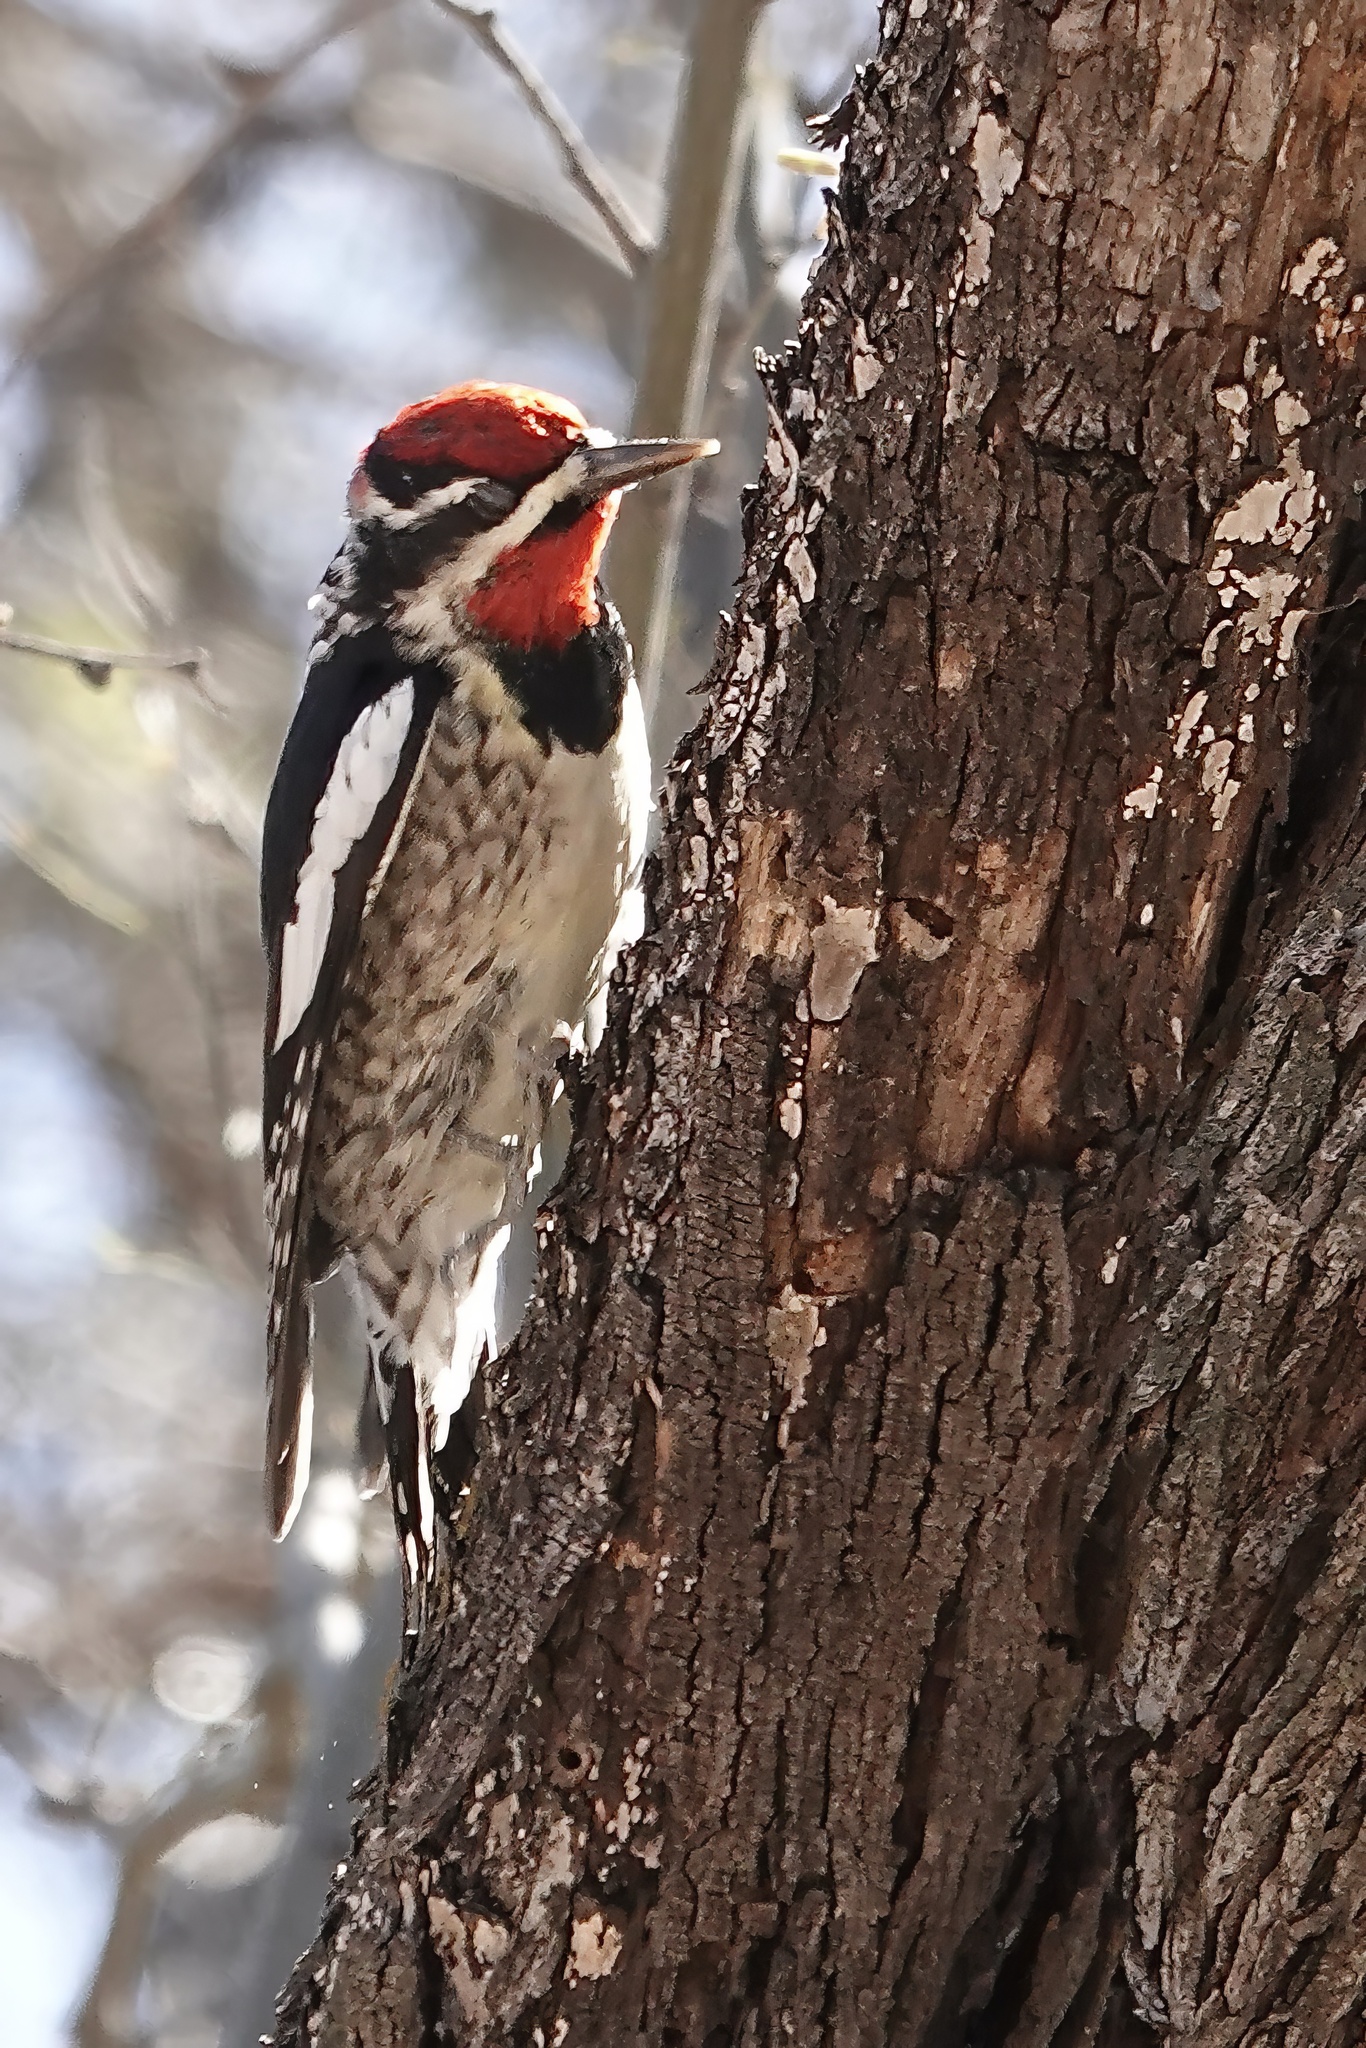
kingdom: Animalia
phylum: Chordata
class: Aves
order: Piciformes
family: Picidae
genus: Sphyrapicus
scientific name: Sphyrapicus nuchalis
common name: Red-naped sapsucker
